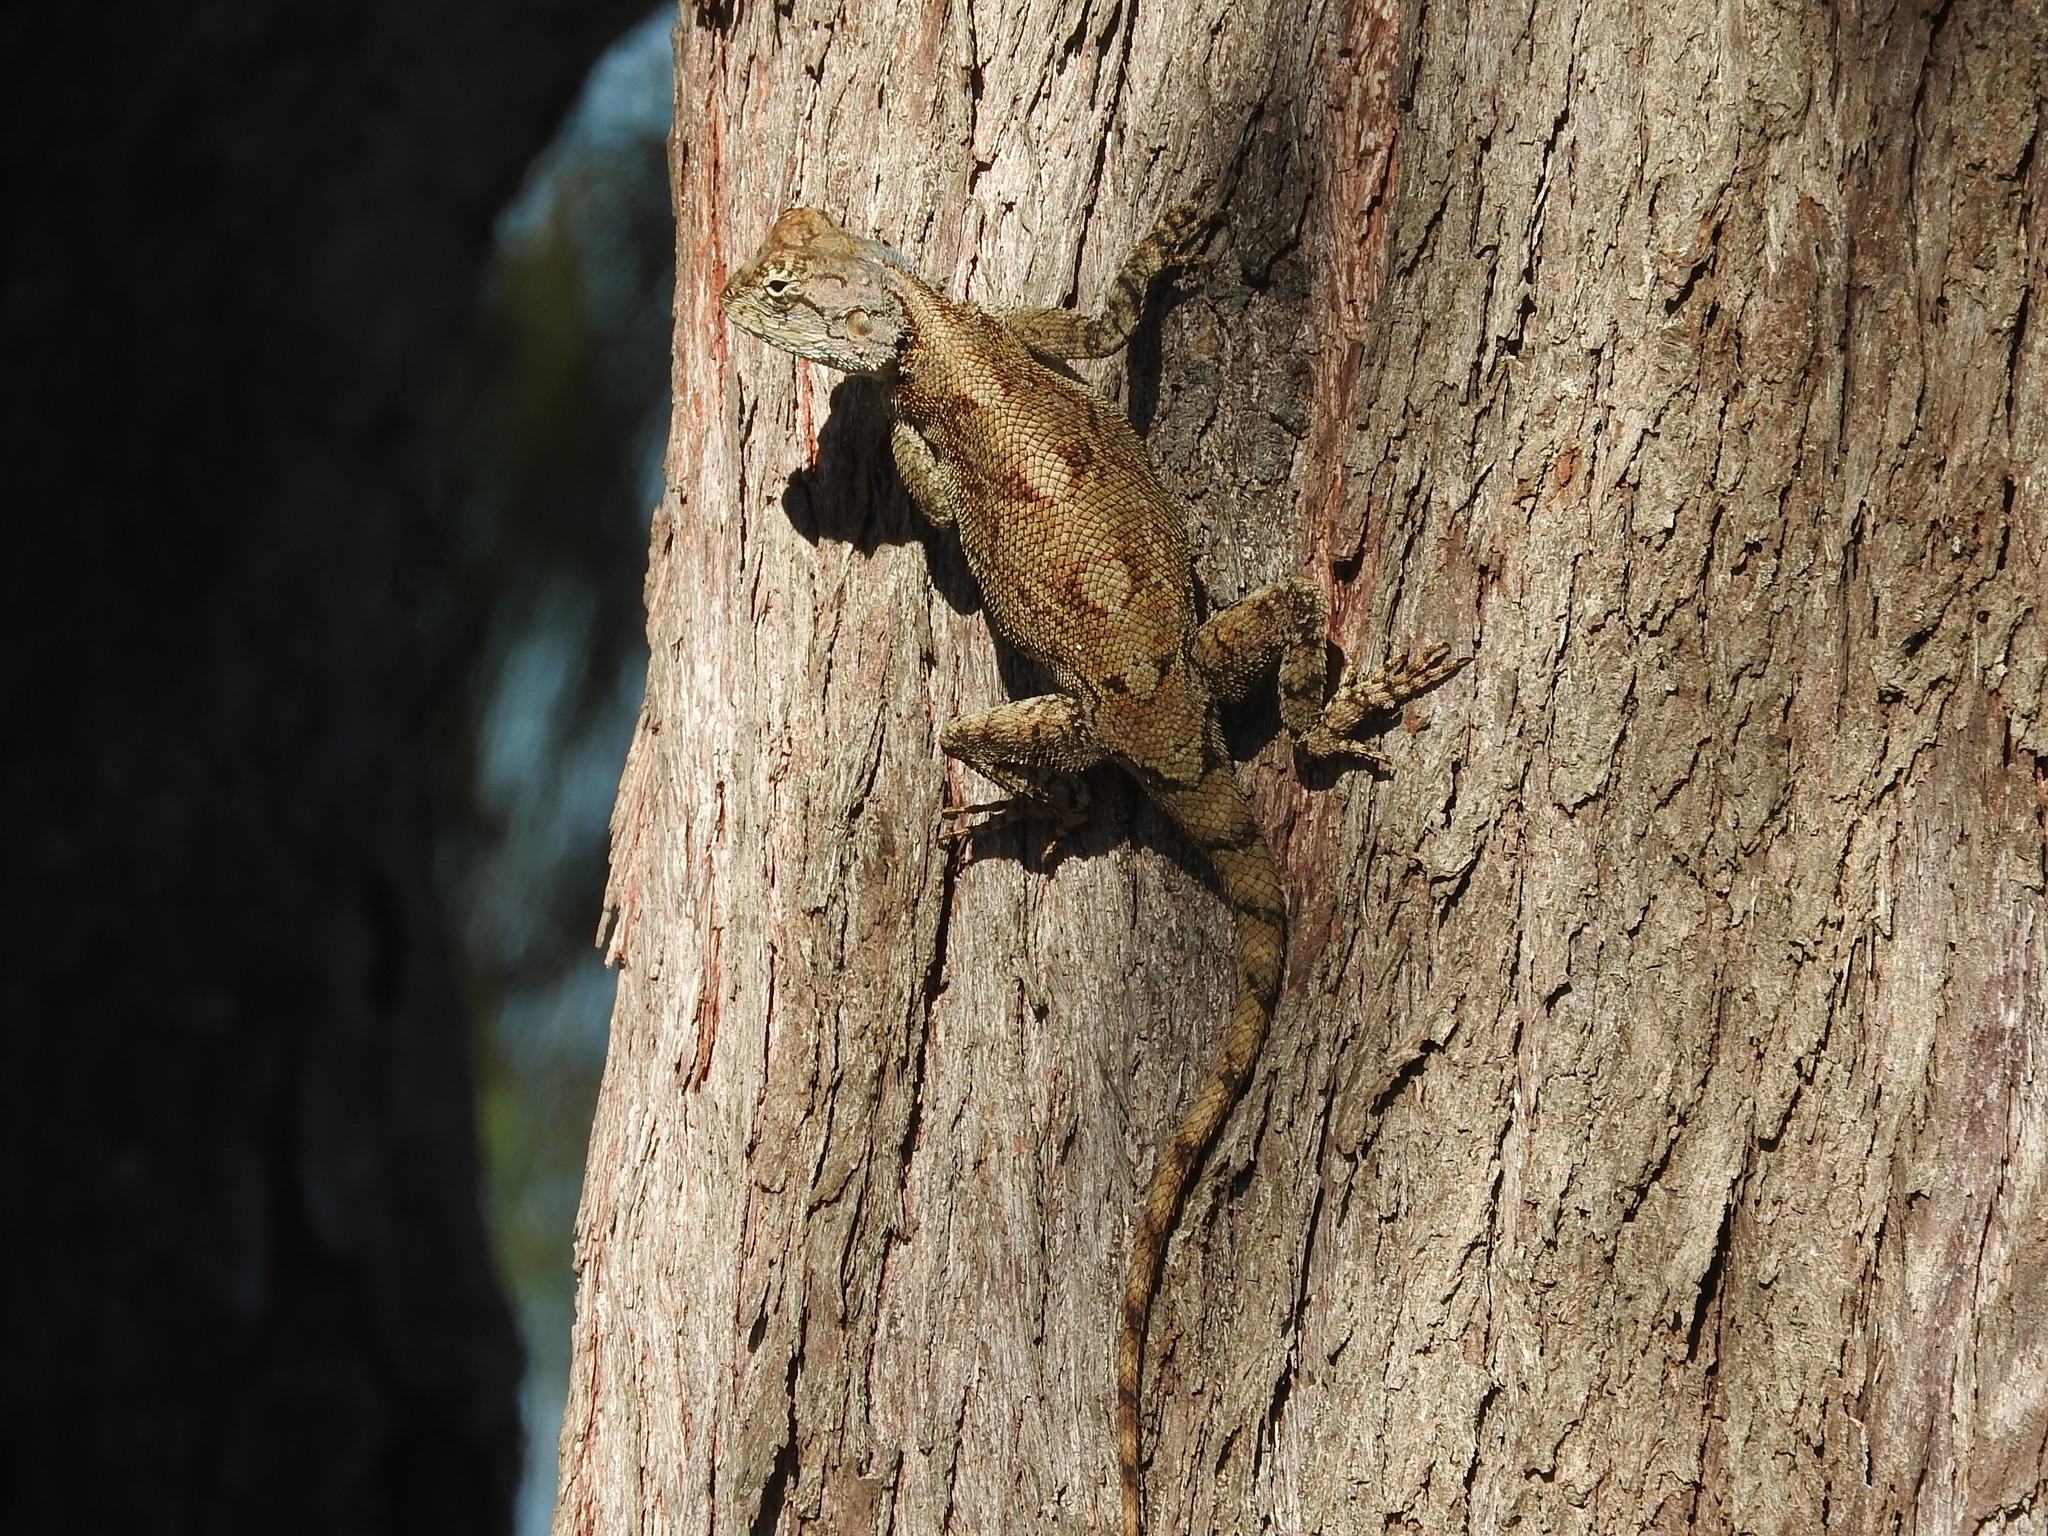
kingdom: Animalia
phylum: Chordata
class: Squamata
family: Agamidae
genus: Agama
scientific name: Agama mossambica
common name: Mozambique agama
